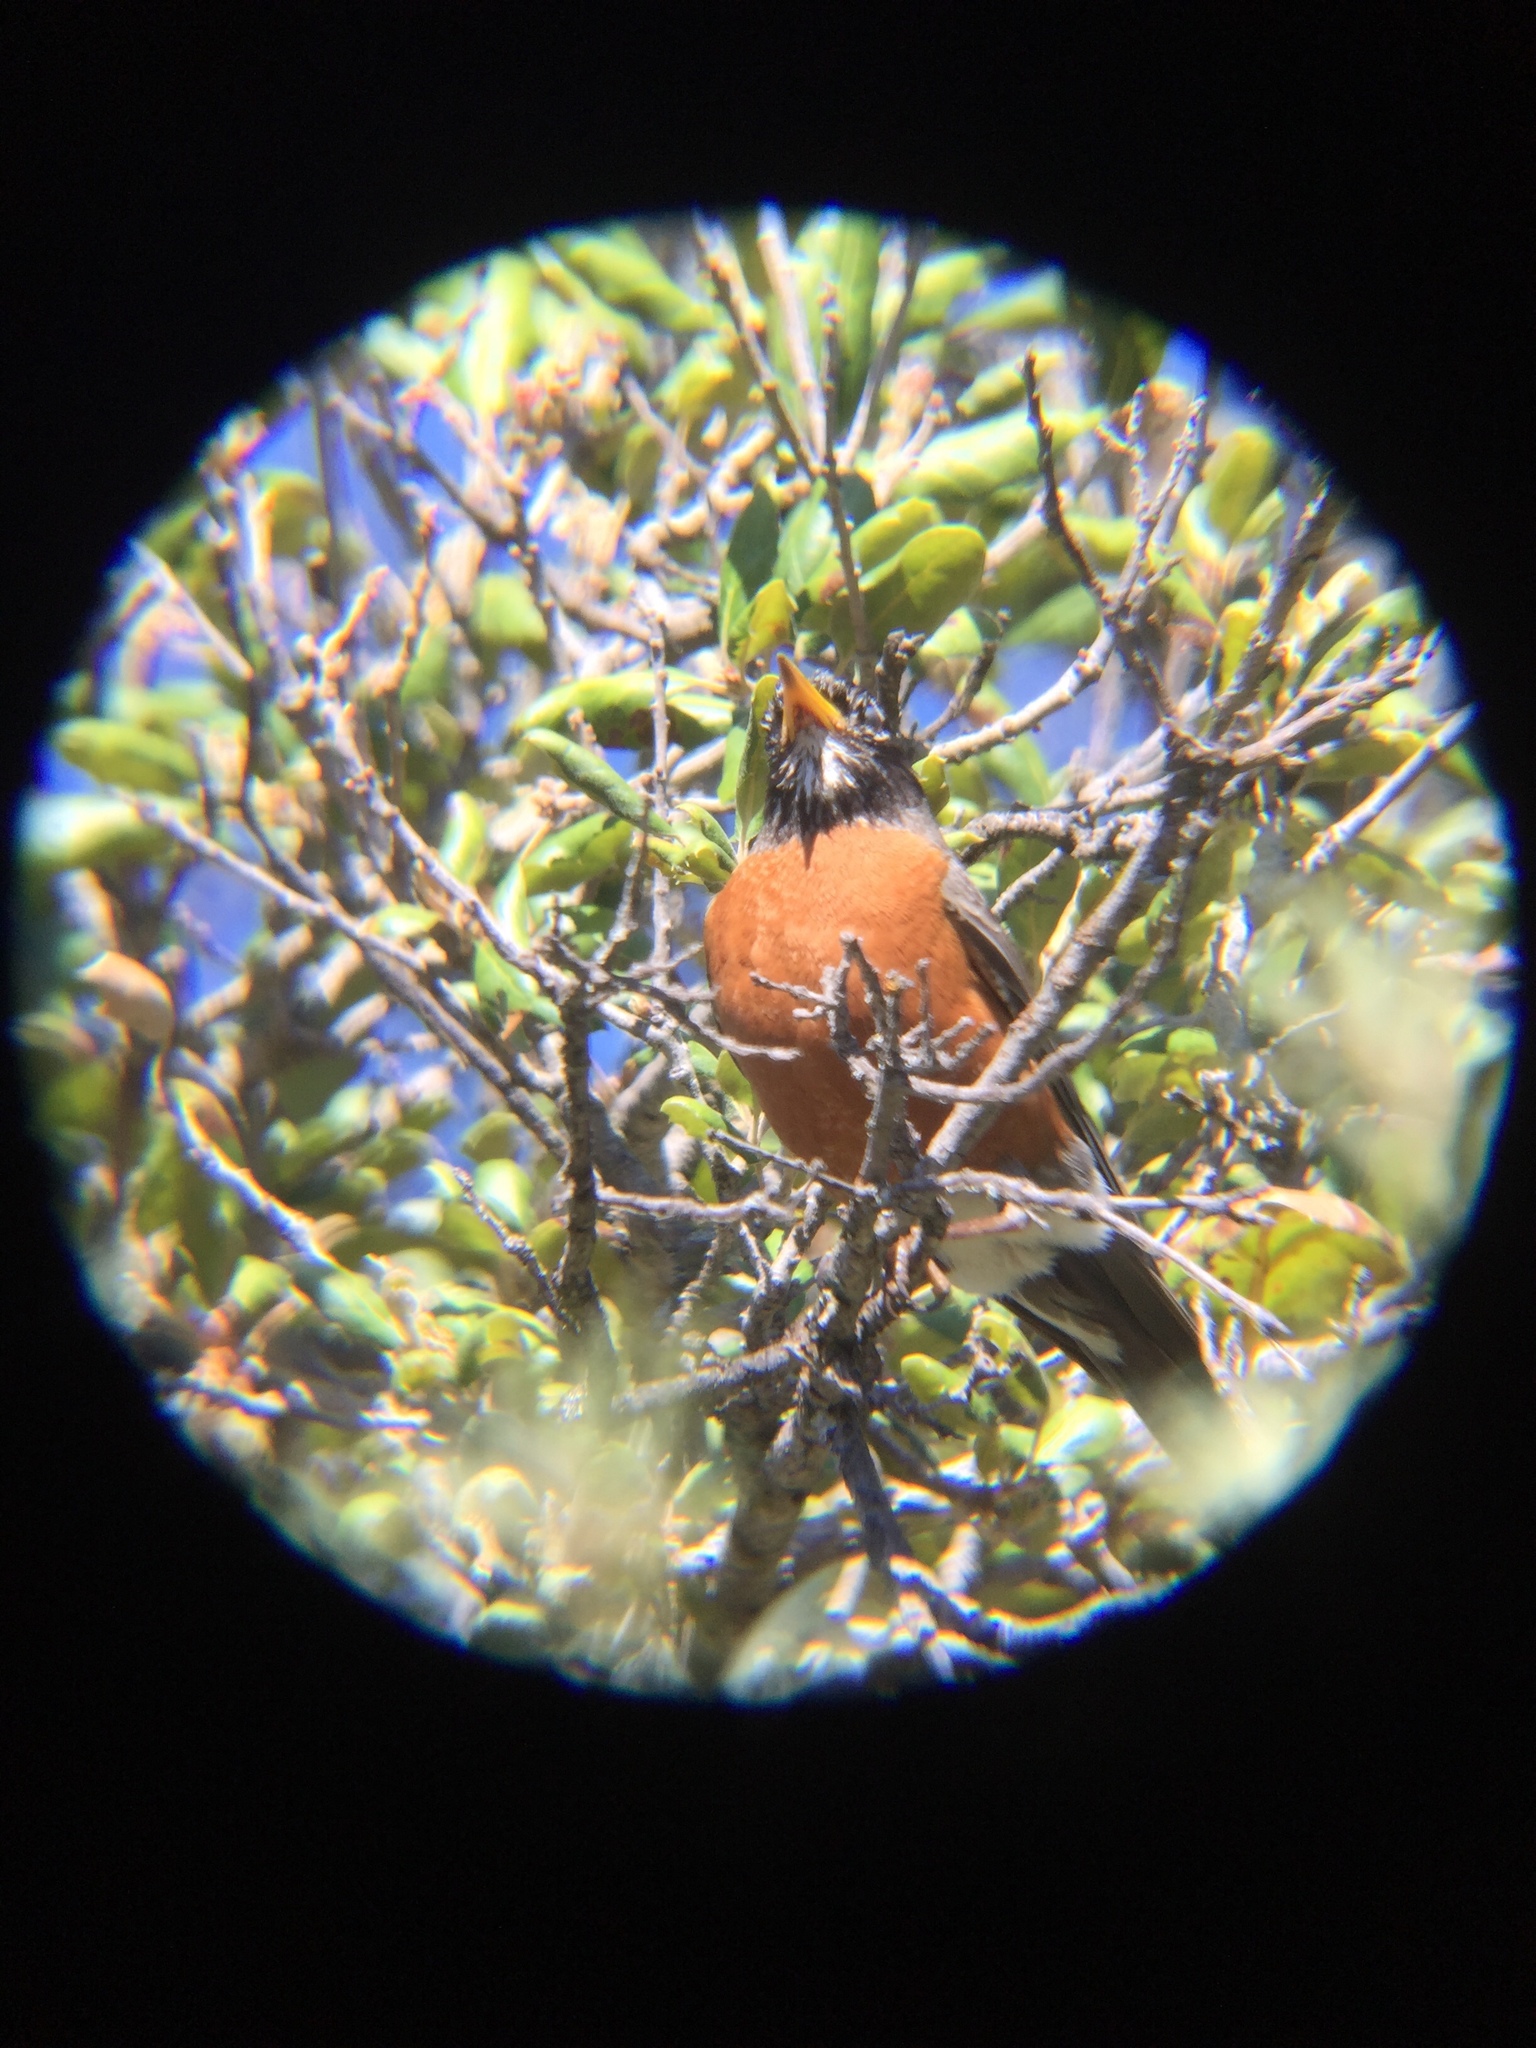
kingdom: Animalia
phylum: Chordata
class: Aves
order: Passeriformes
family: Turdidae
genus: Turdus
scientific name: Turdus migratorius
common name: American robin
